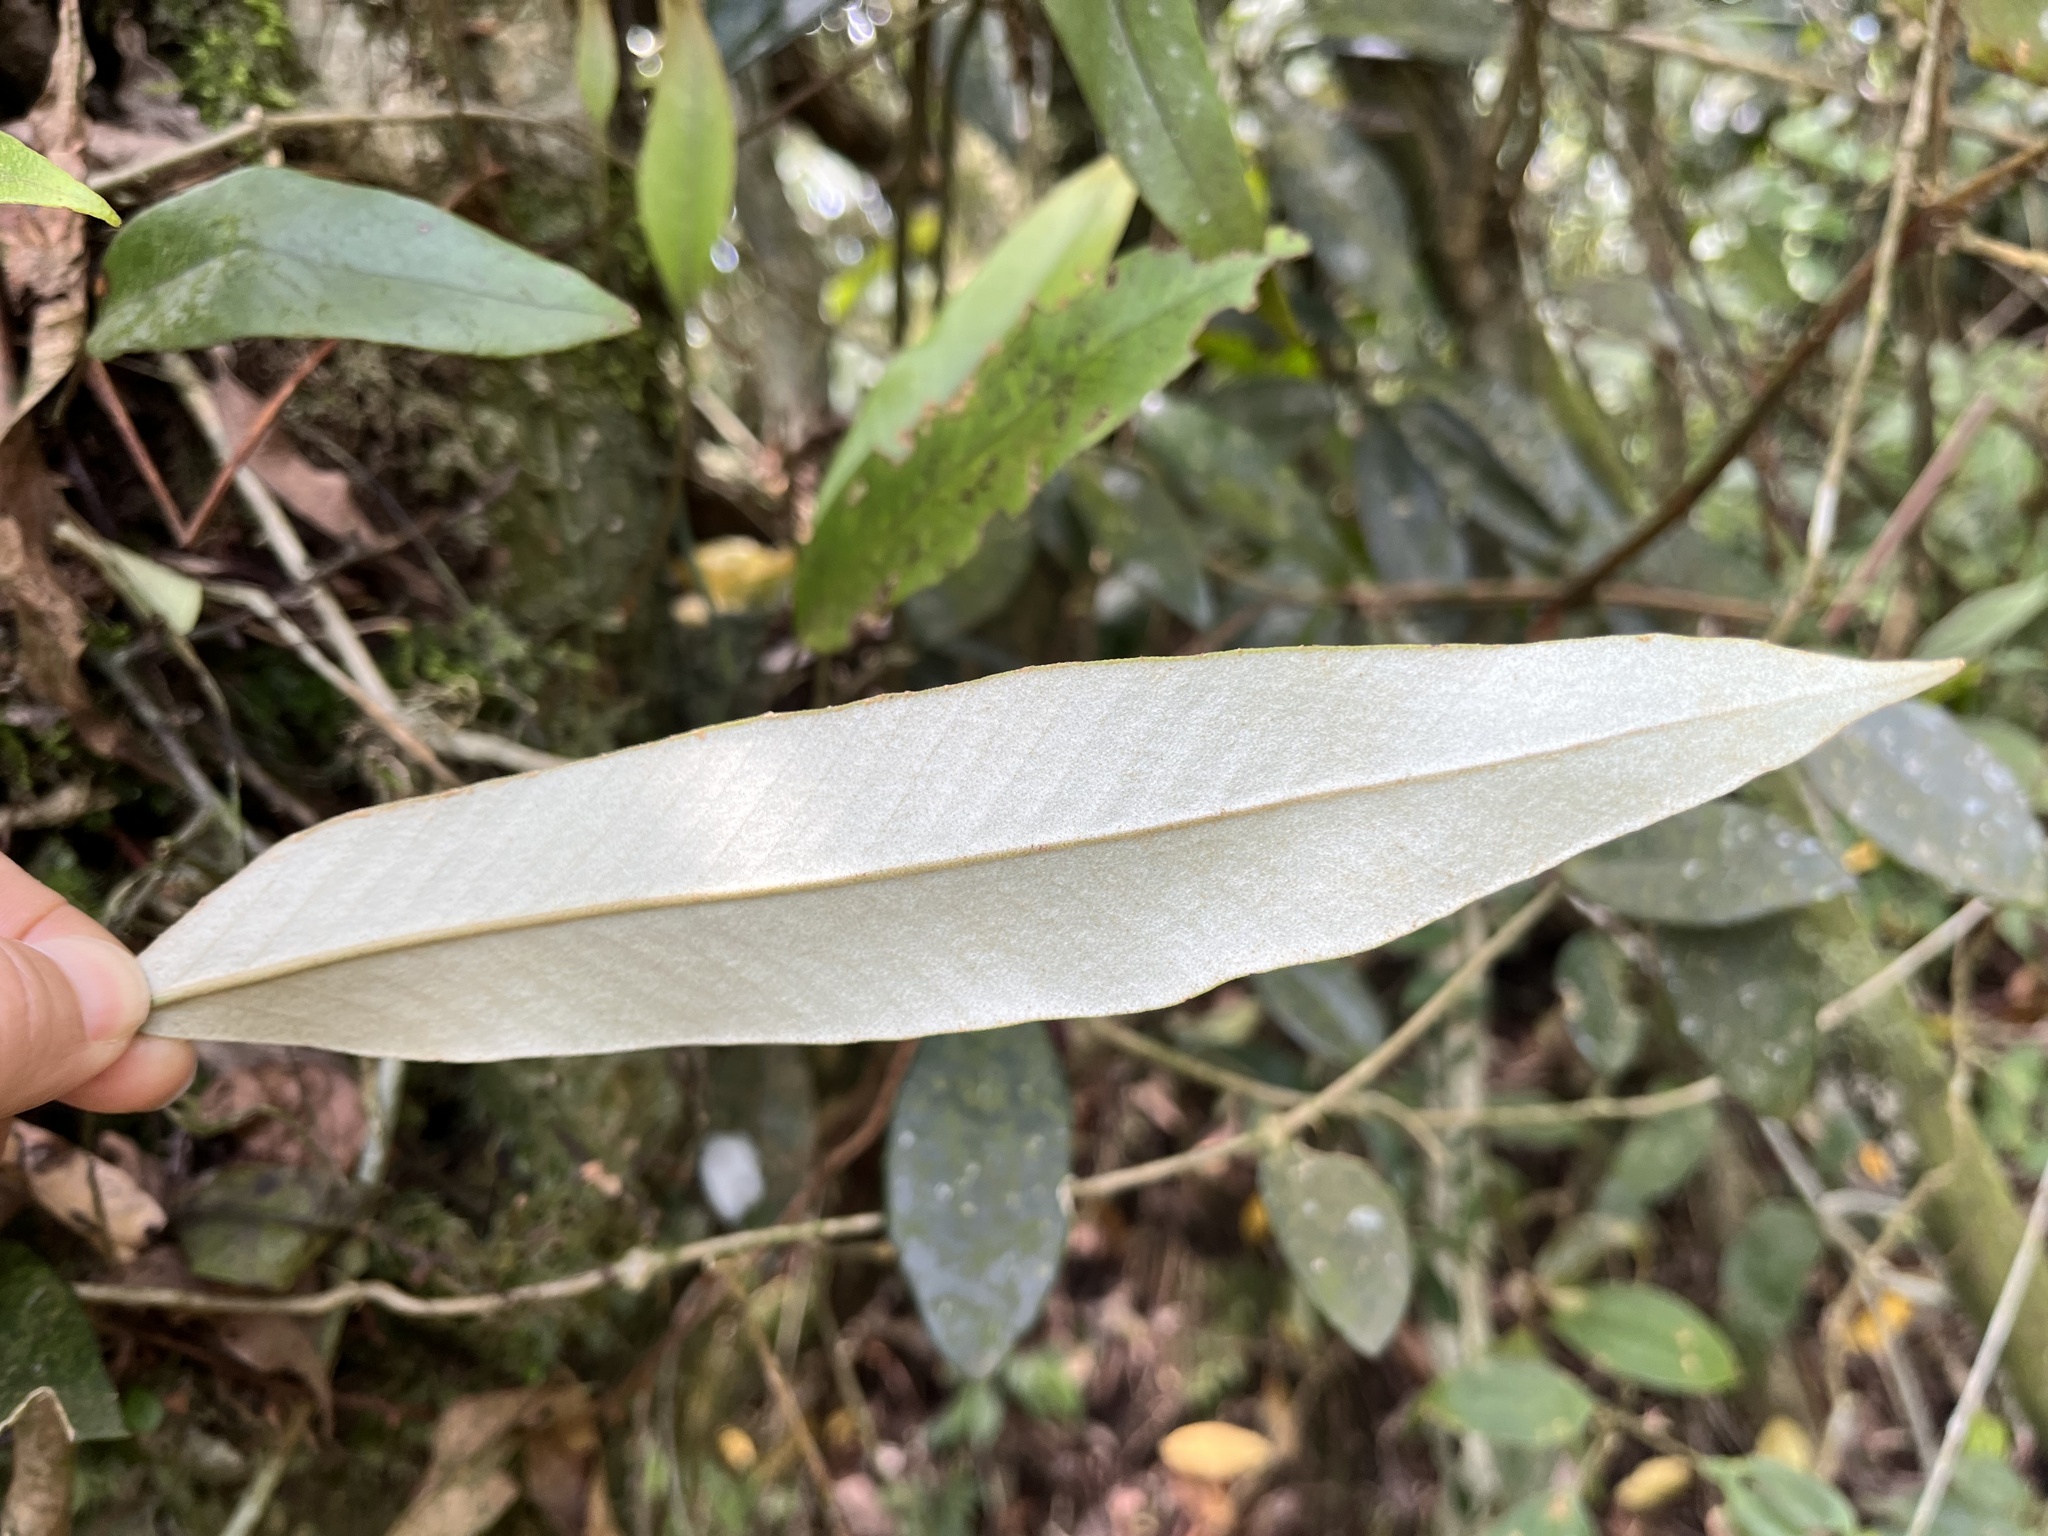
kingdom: Plantae
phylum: Tracheophyta
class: Polypodiopsida
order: Polypodiales
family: Polypodiaceae
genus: Pyrrosia
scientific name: Pyrrosia lingua
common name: Felt fern
